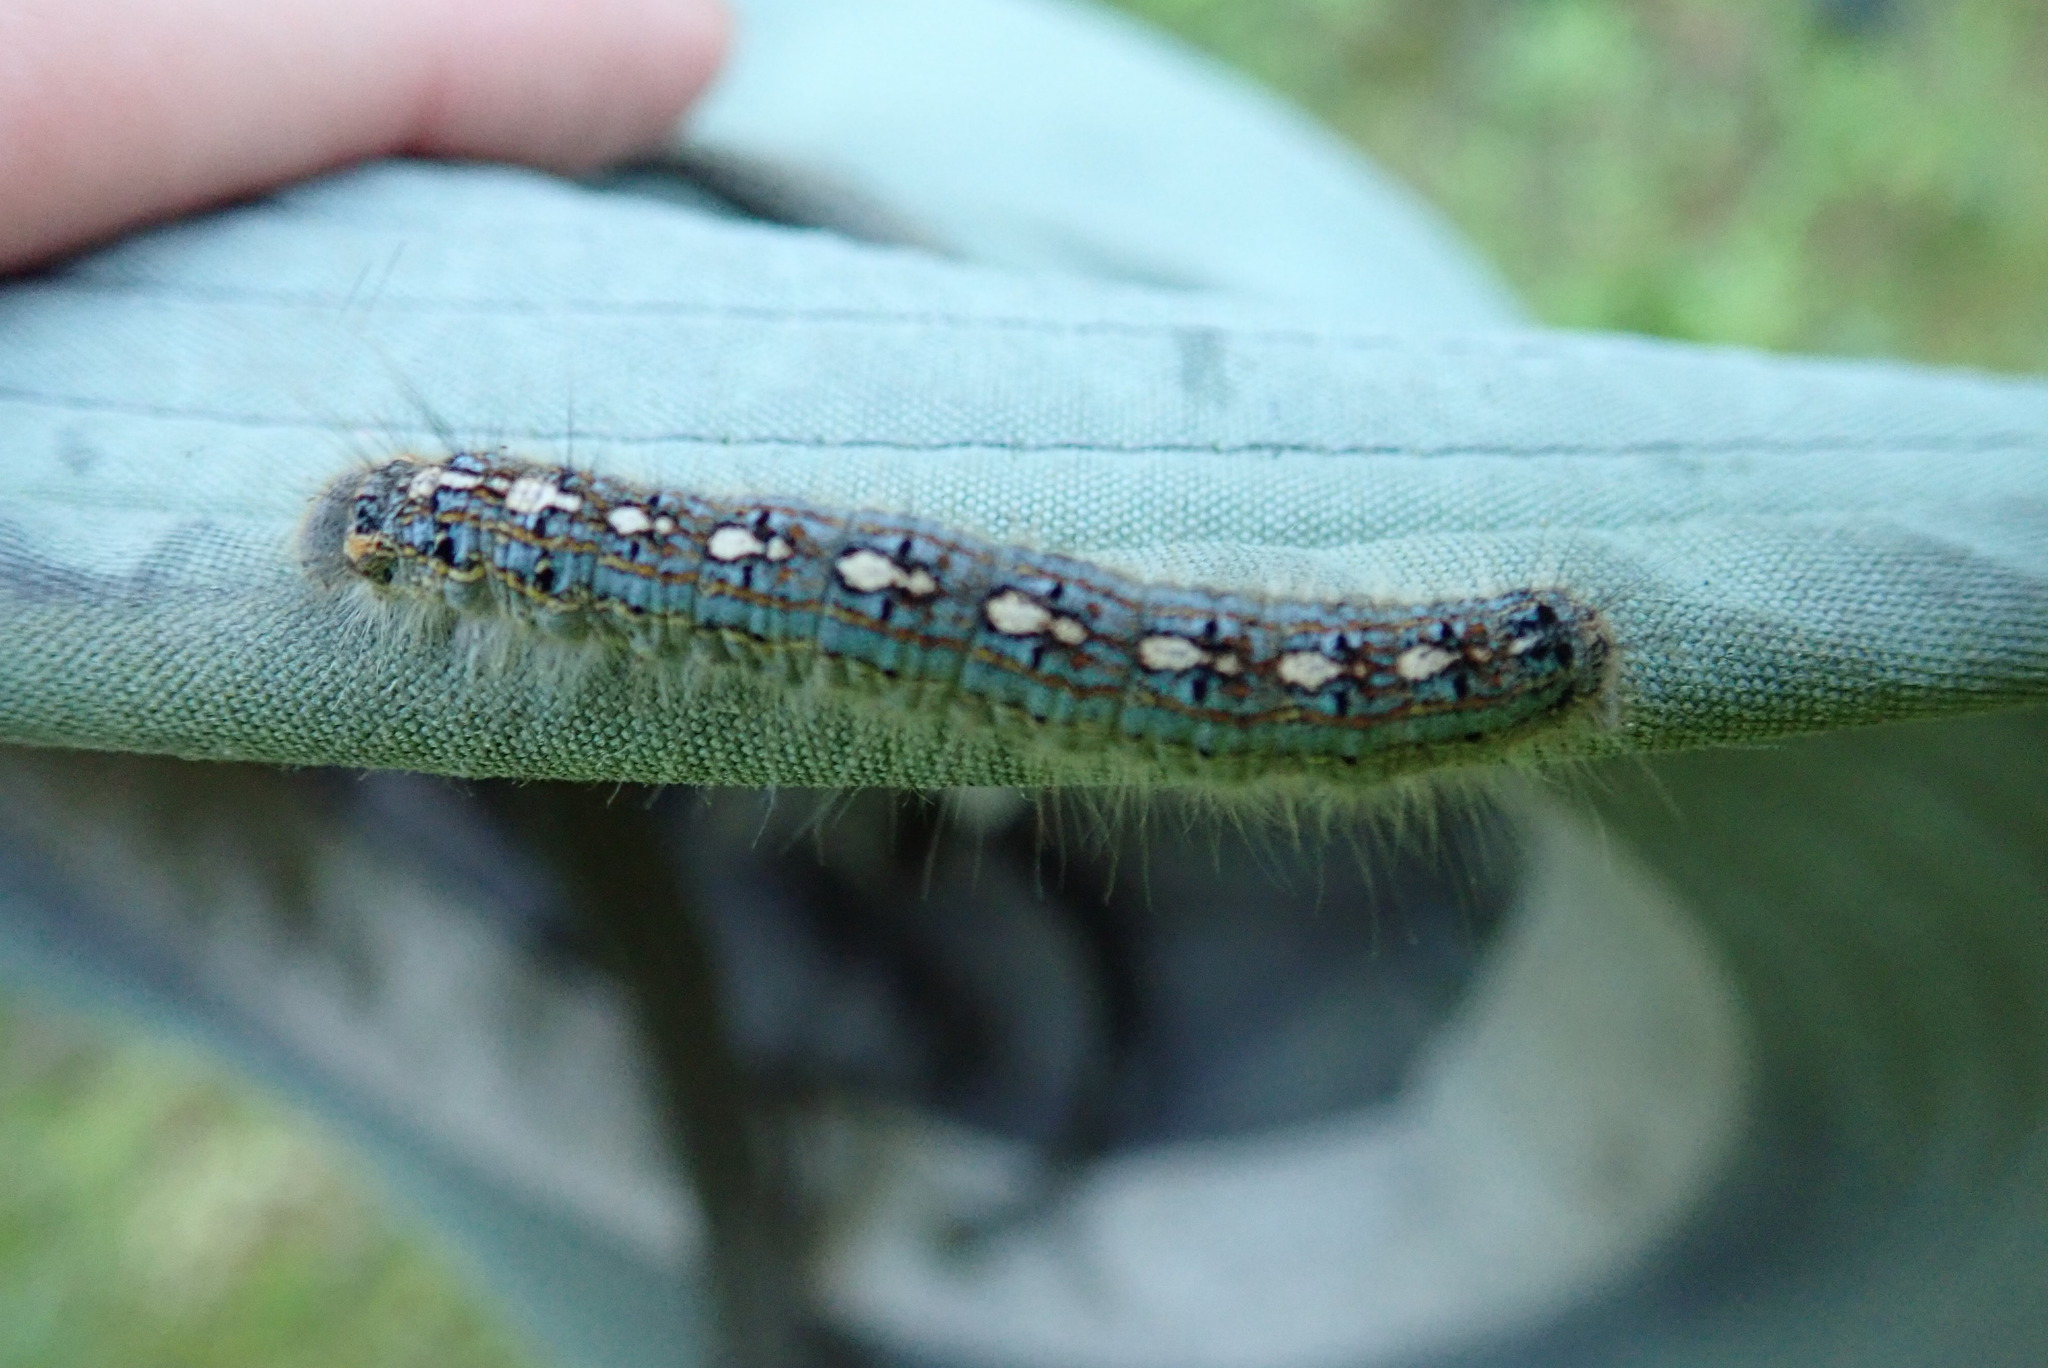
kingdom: Animalia
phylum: Arthropoda
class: Insecta
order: Lepidoptera
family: Lasiocampidae
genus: Malacosoma
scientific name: Malacosoma disstria
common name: Forest tent caterpillar
